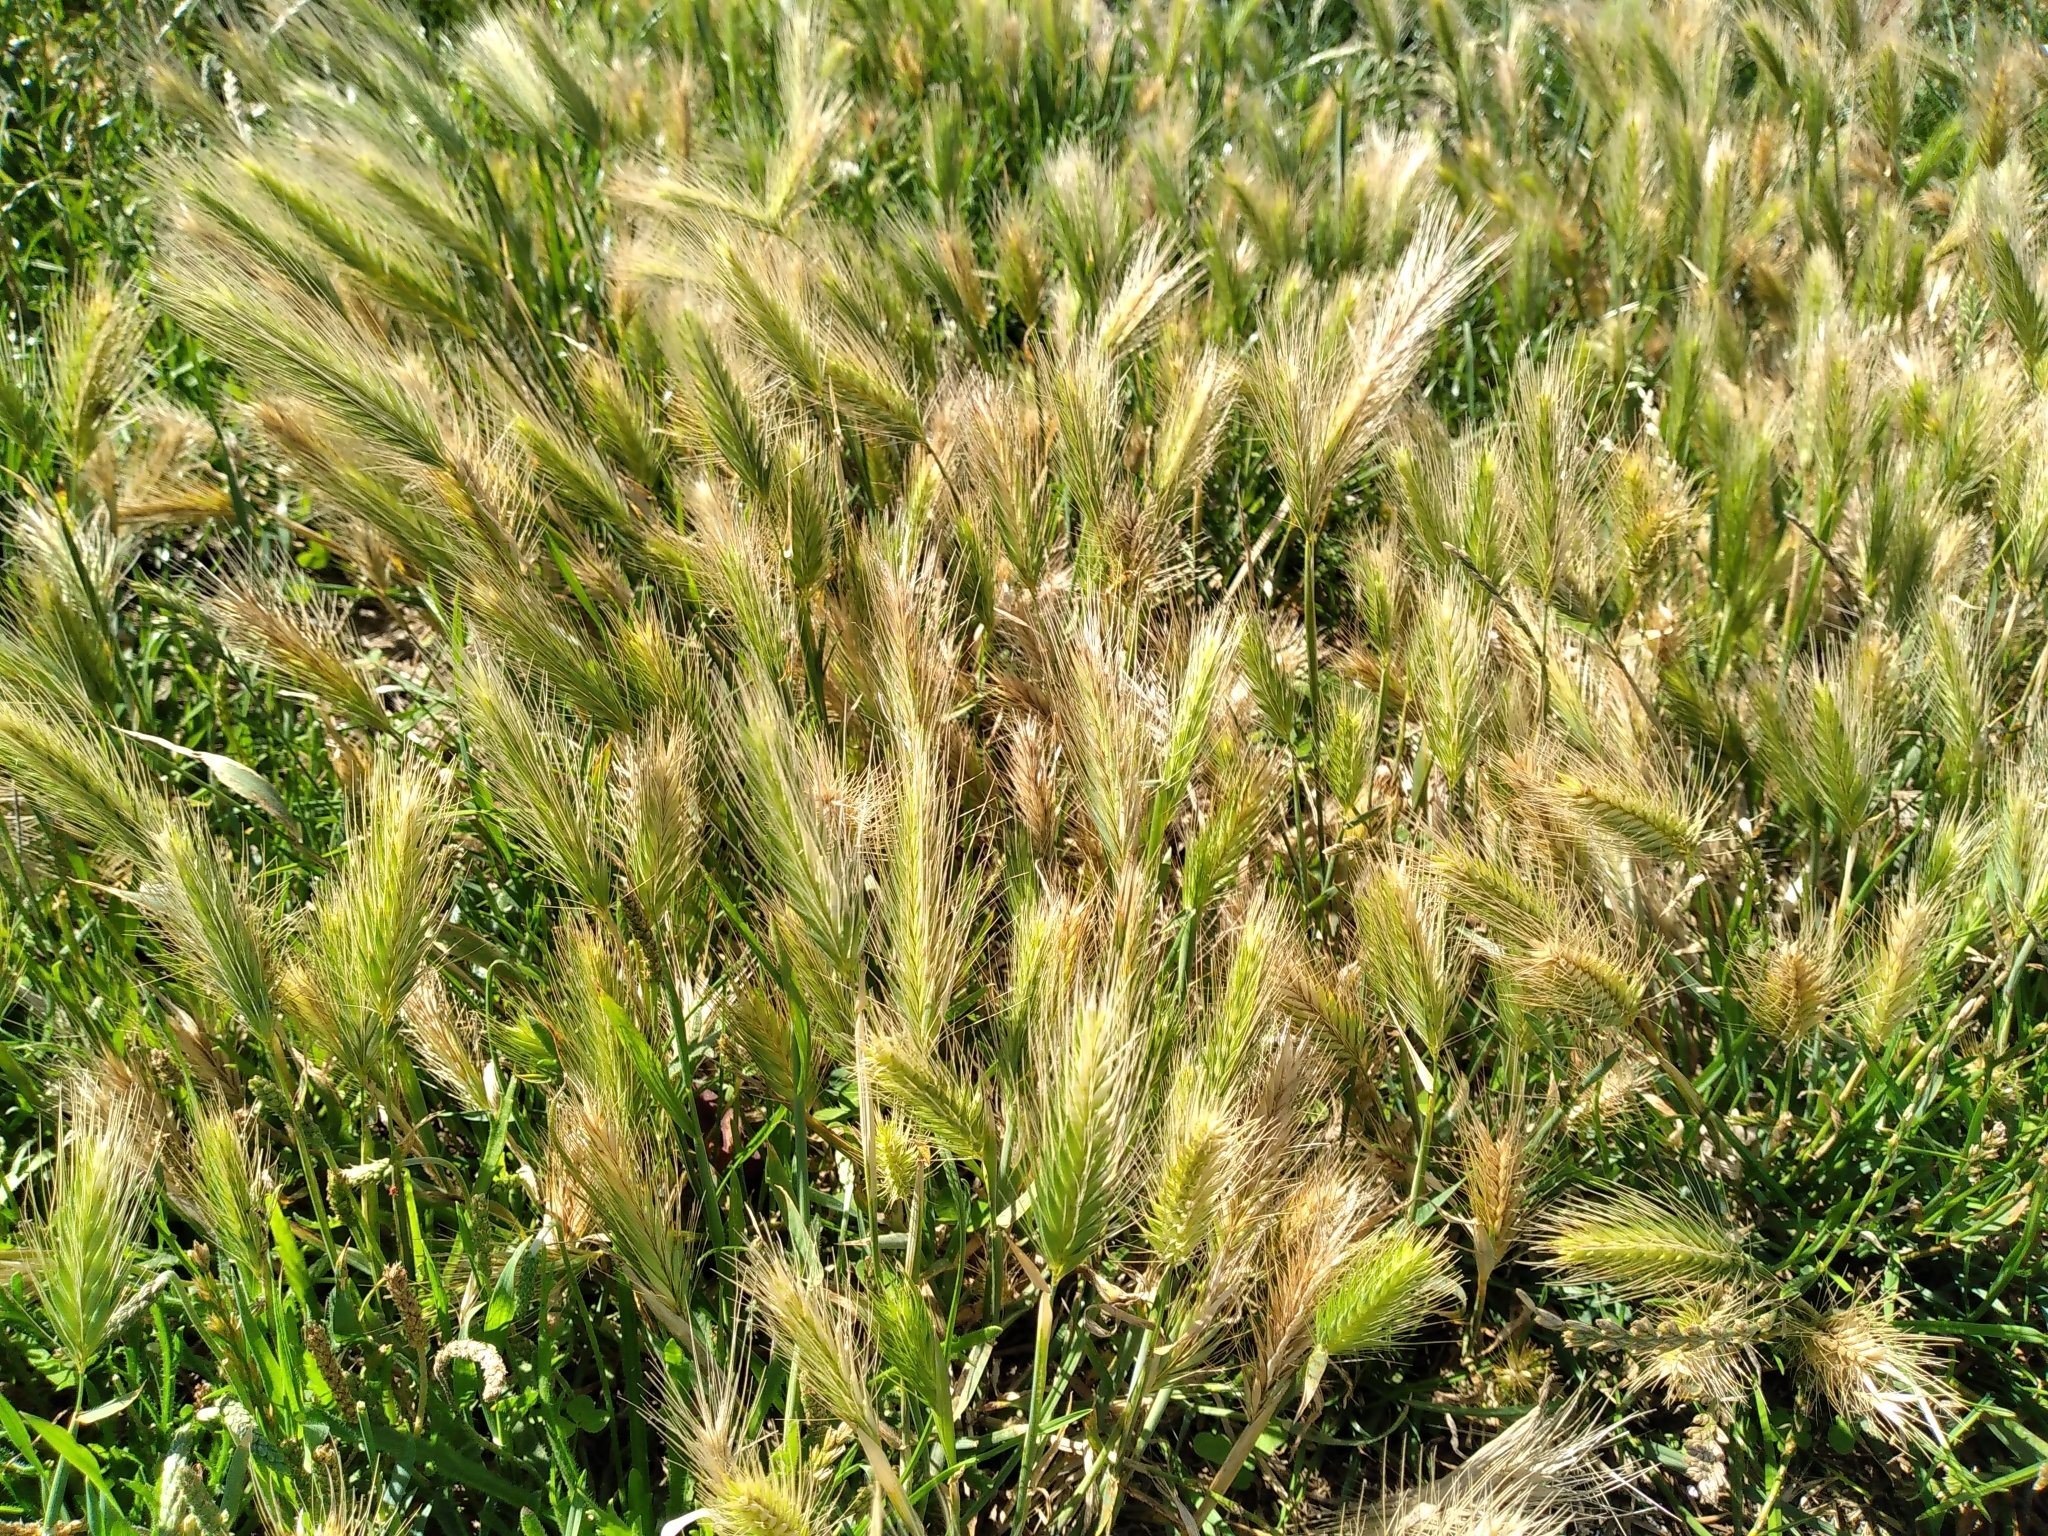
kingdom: Plantae
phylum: Tracheophyta
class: Liliopsida
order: Poales
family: Poaceae
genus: Hordeum
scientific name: Hordeum murinum
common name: Wall barley
